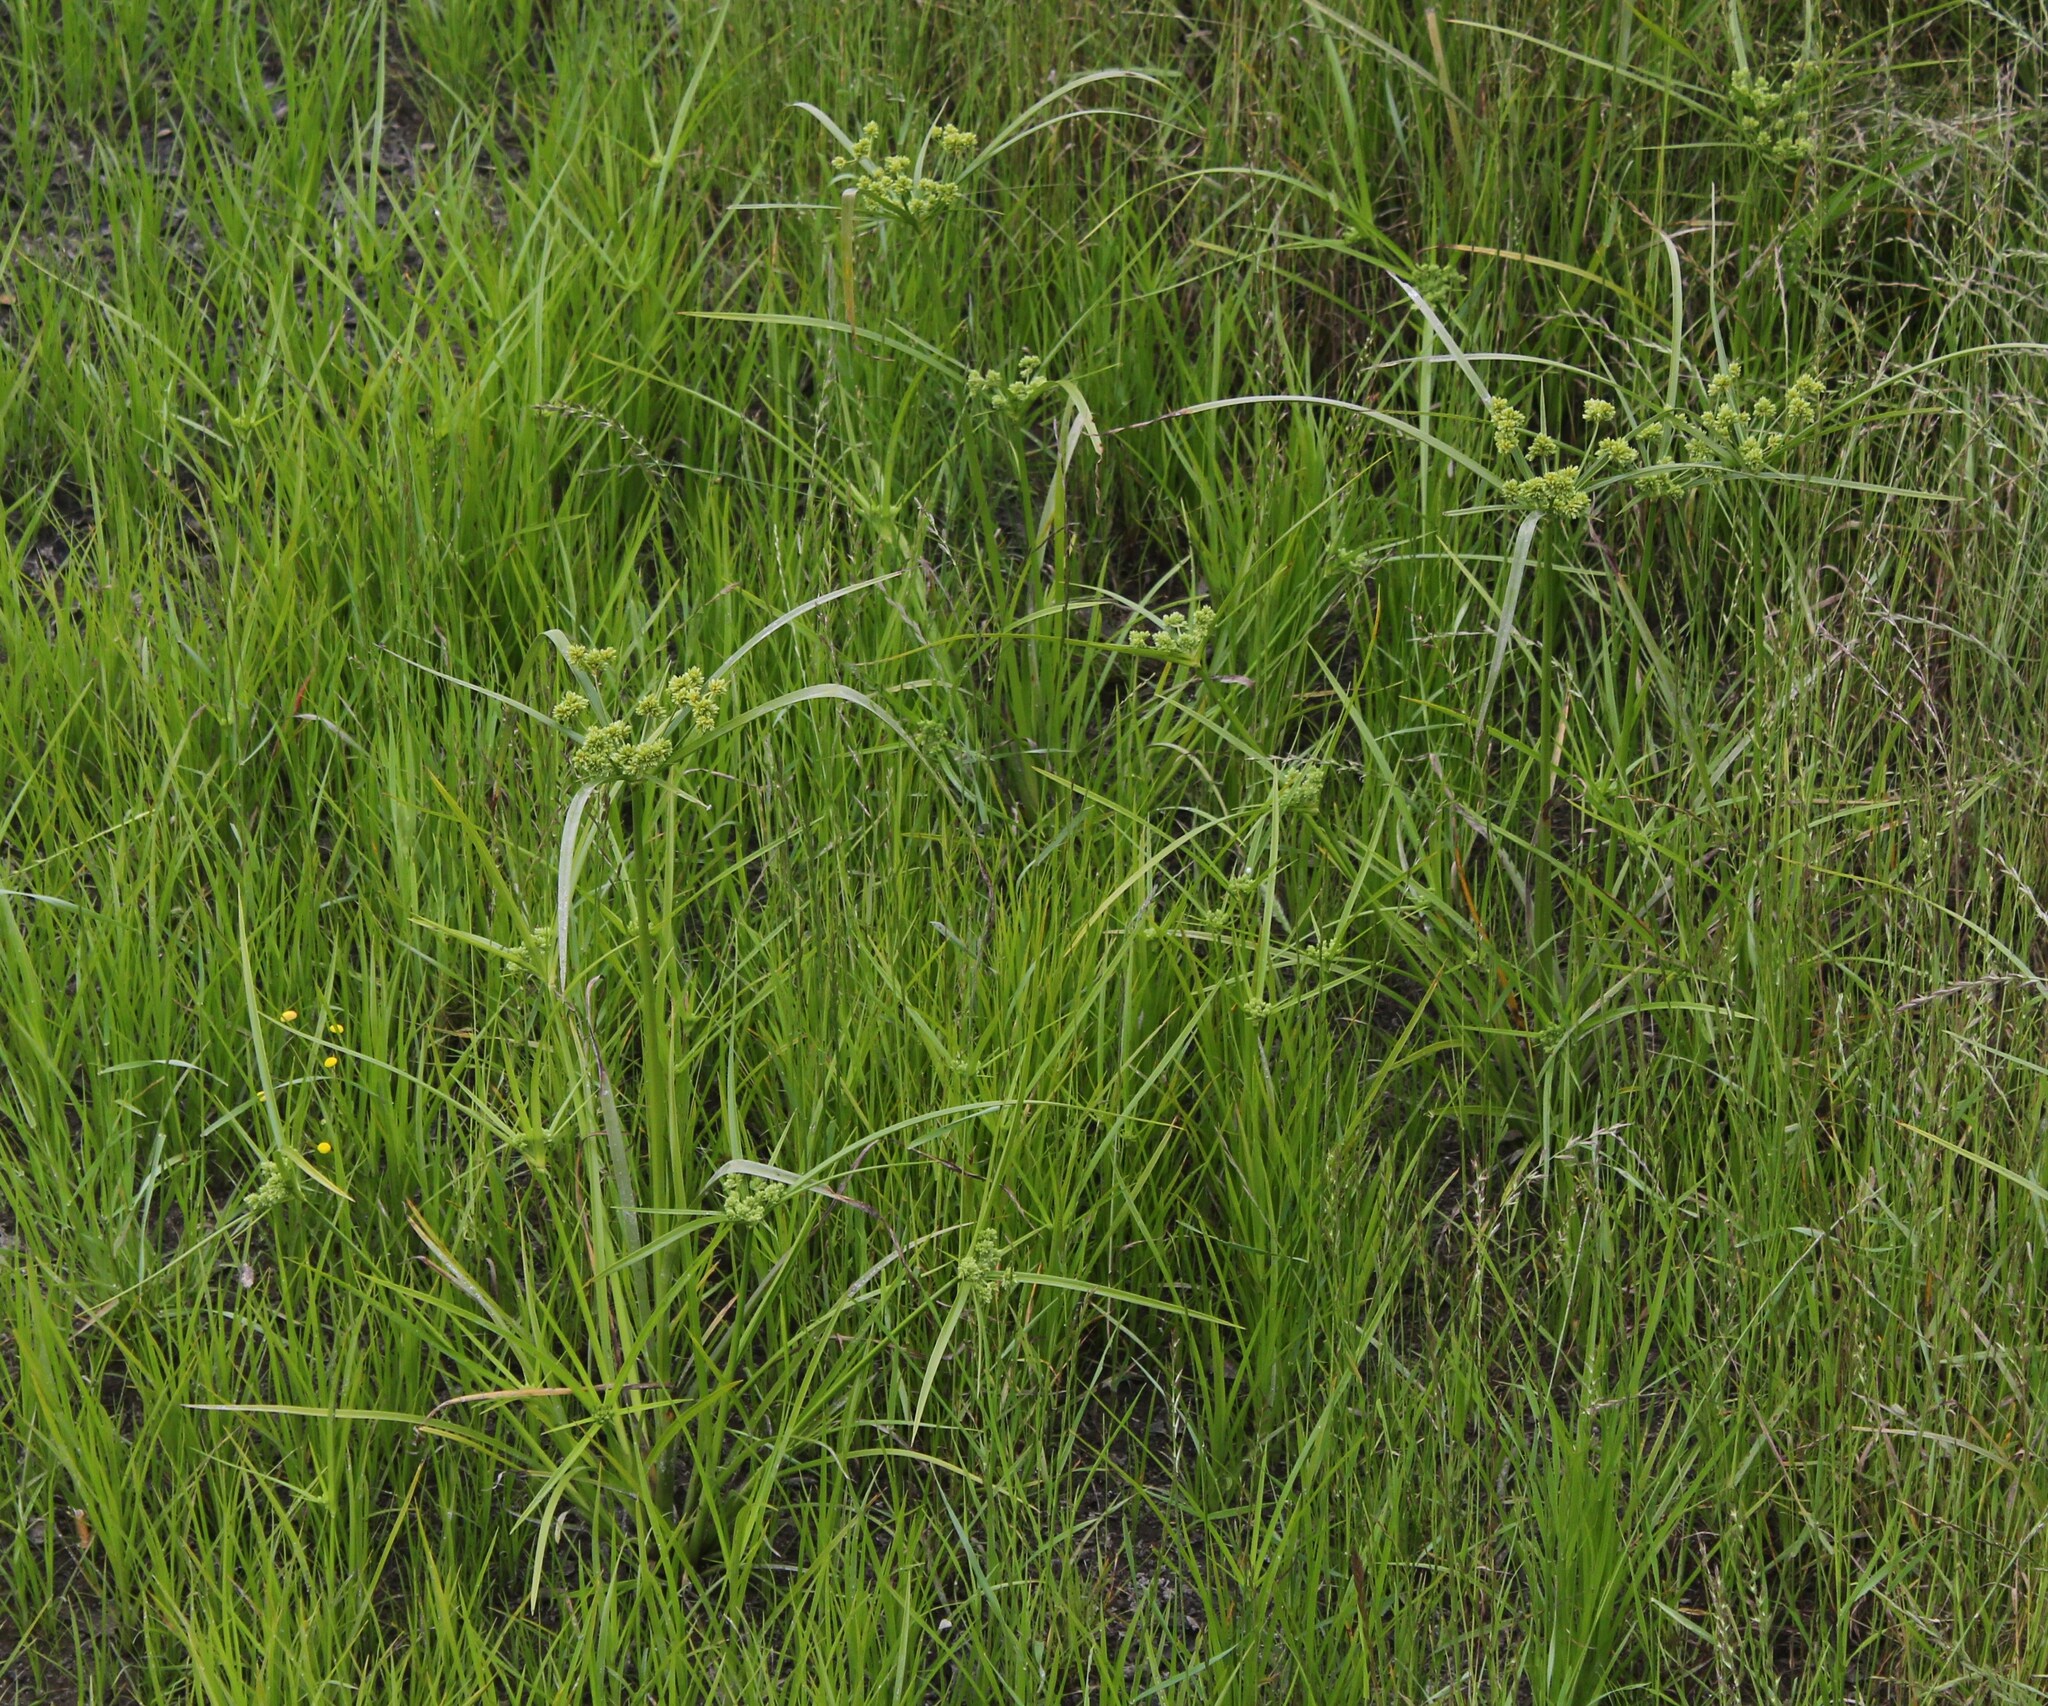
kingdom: Plantae
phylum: Tracheophyta
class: Liliopsida
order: Poales
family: Cyperaceae
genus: Cyperus
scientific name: Cyperus eragrostis
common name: Tall flatsedge
